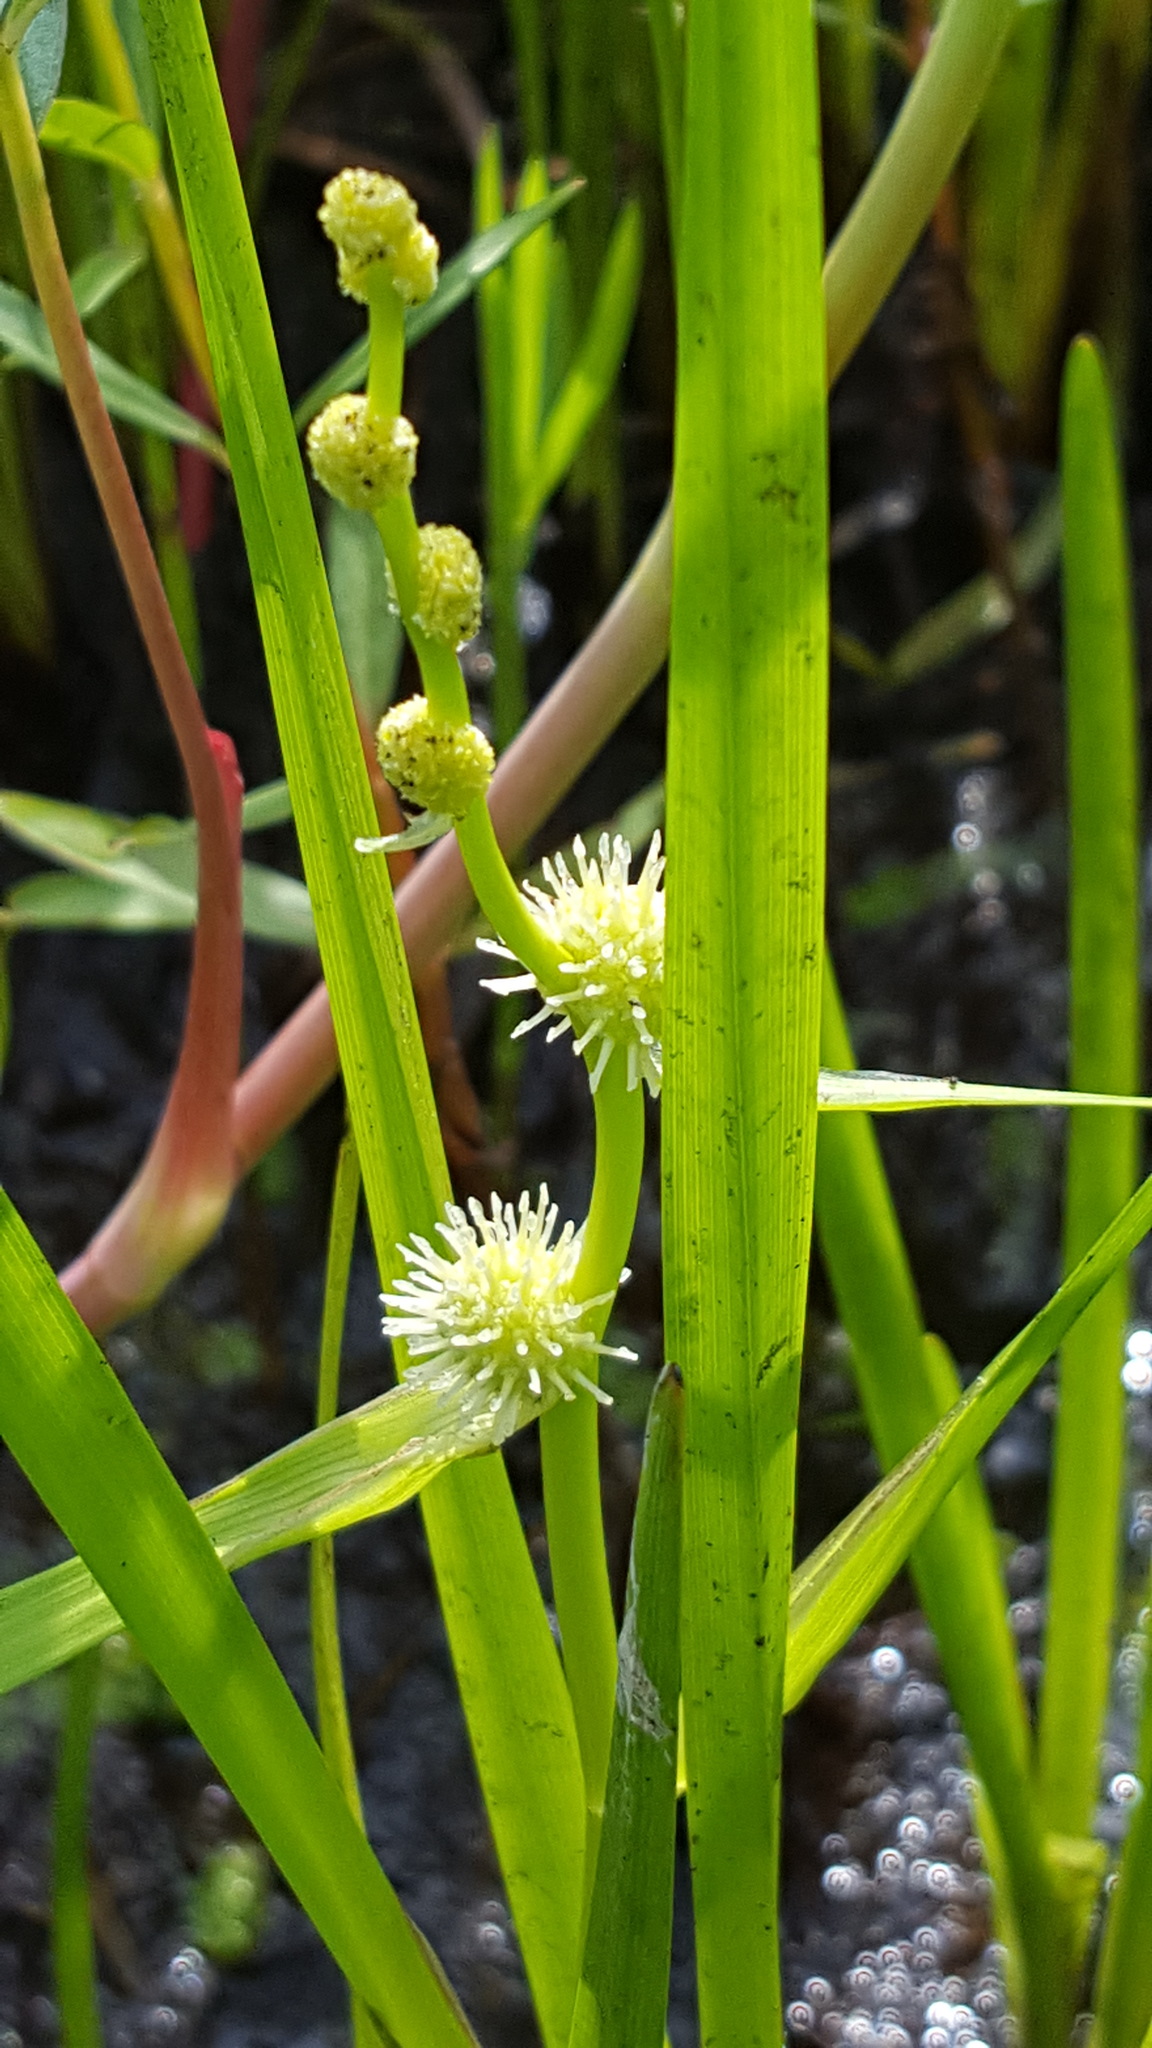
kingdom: Plantae
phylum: Tracheophyta
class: Liliopsida
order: Poales
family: Typhaceae
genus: Sparganium
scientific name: Sparganium emersum
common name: Unbranched bur-reed
